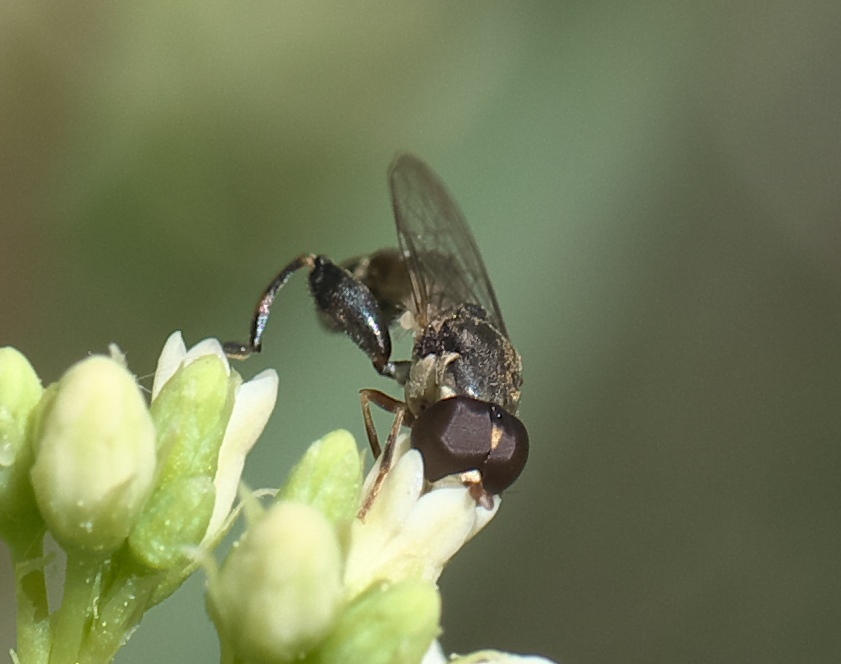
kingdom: Animalia
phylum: Arthropoda
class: Insecta
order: Diptera
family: Syrphidae
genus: Syritta
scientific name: Syritta pipiens
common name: Hover fly
